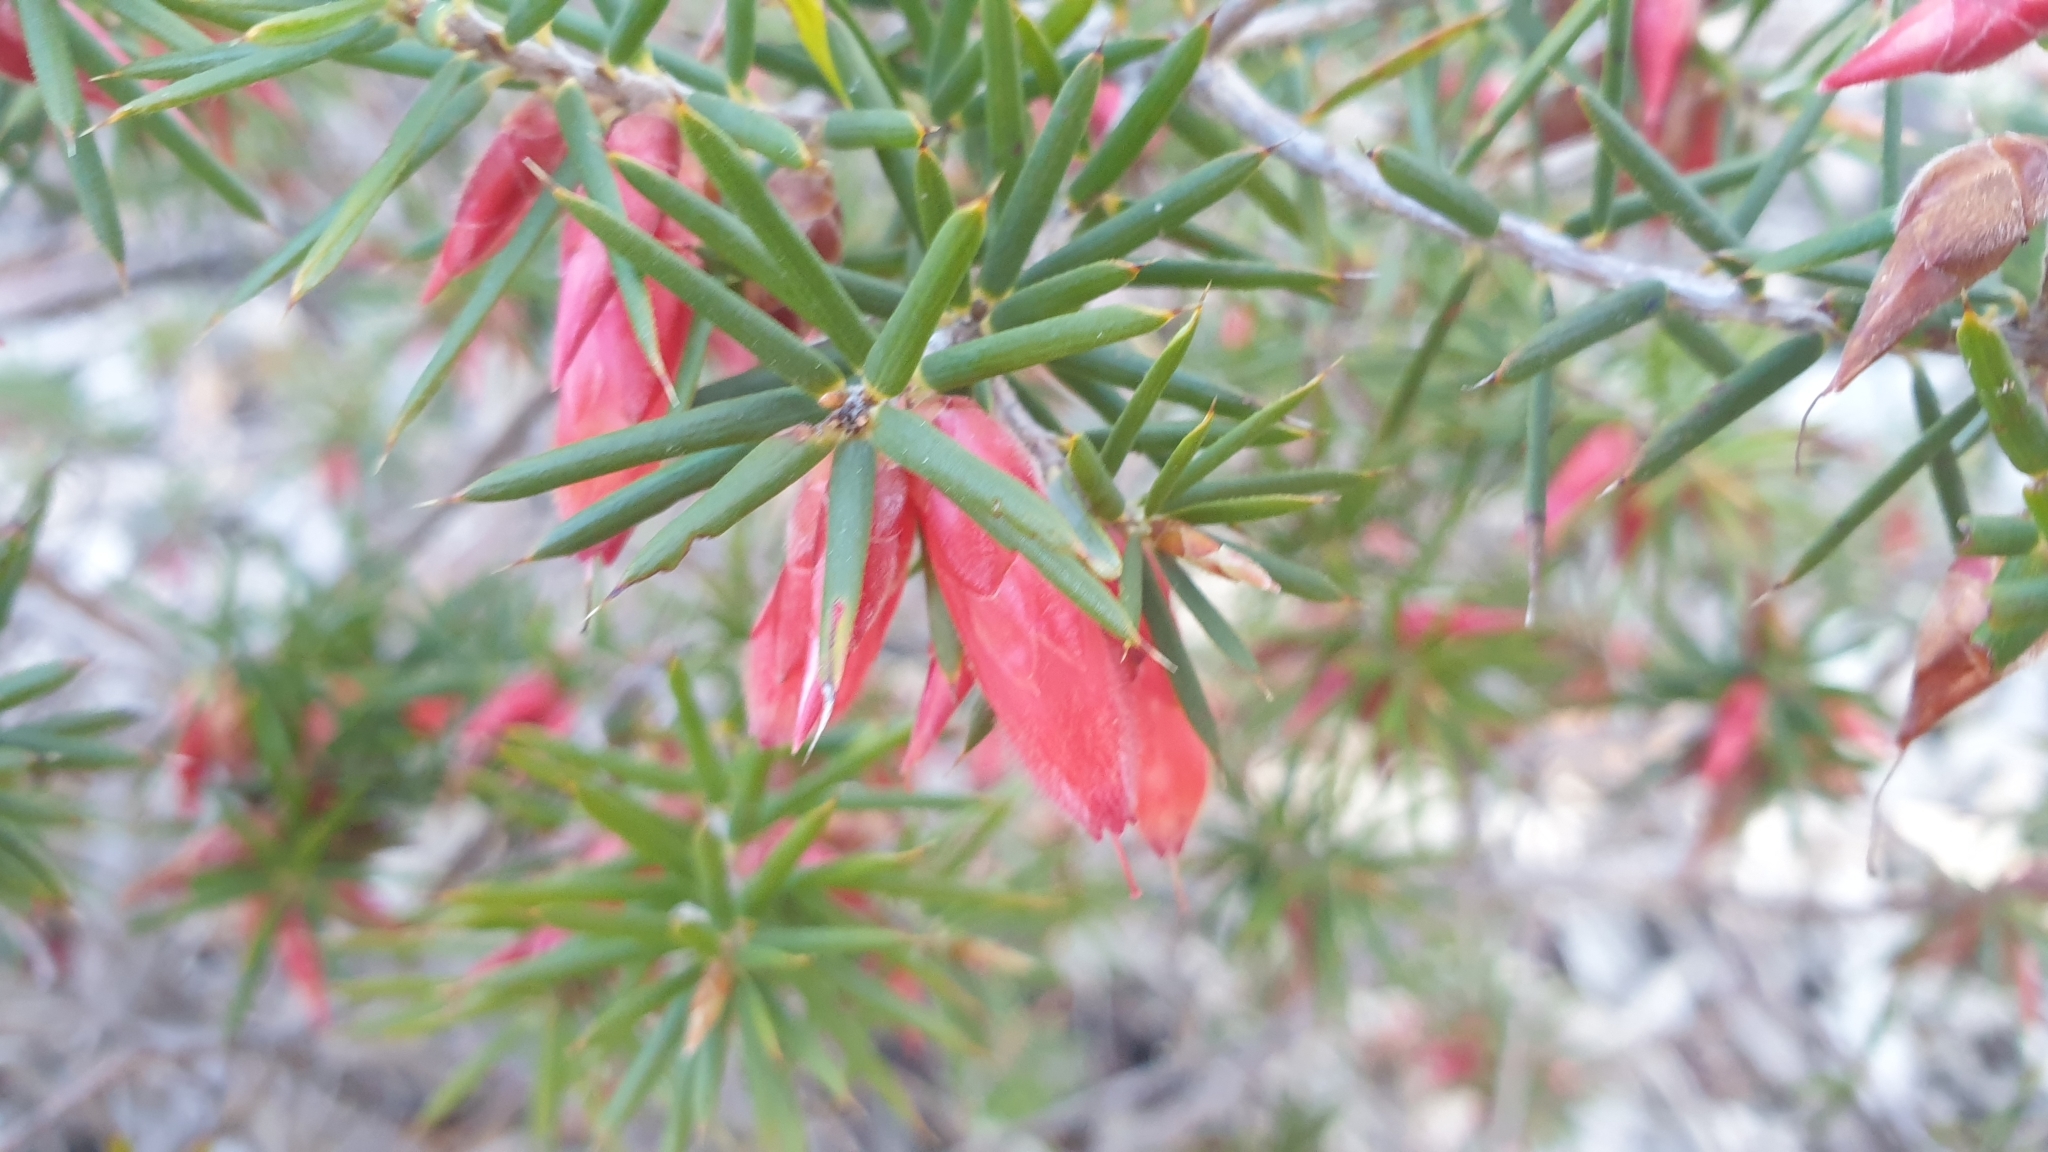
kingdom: Plantae
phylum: Tracheophyta
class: Magnoliopsida
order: Ericales
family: Ericaceae
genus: Stenanthera
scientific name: Stenanthera conostephioides
